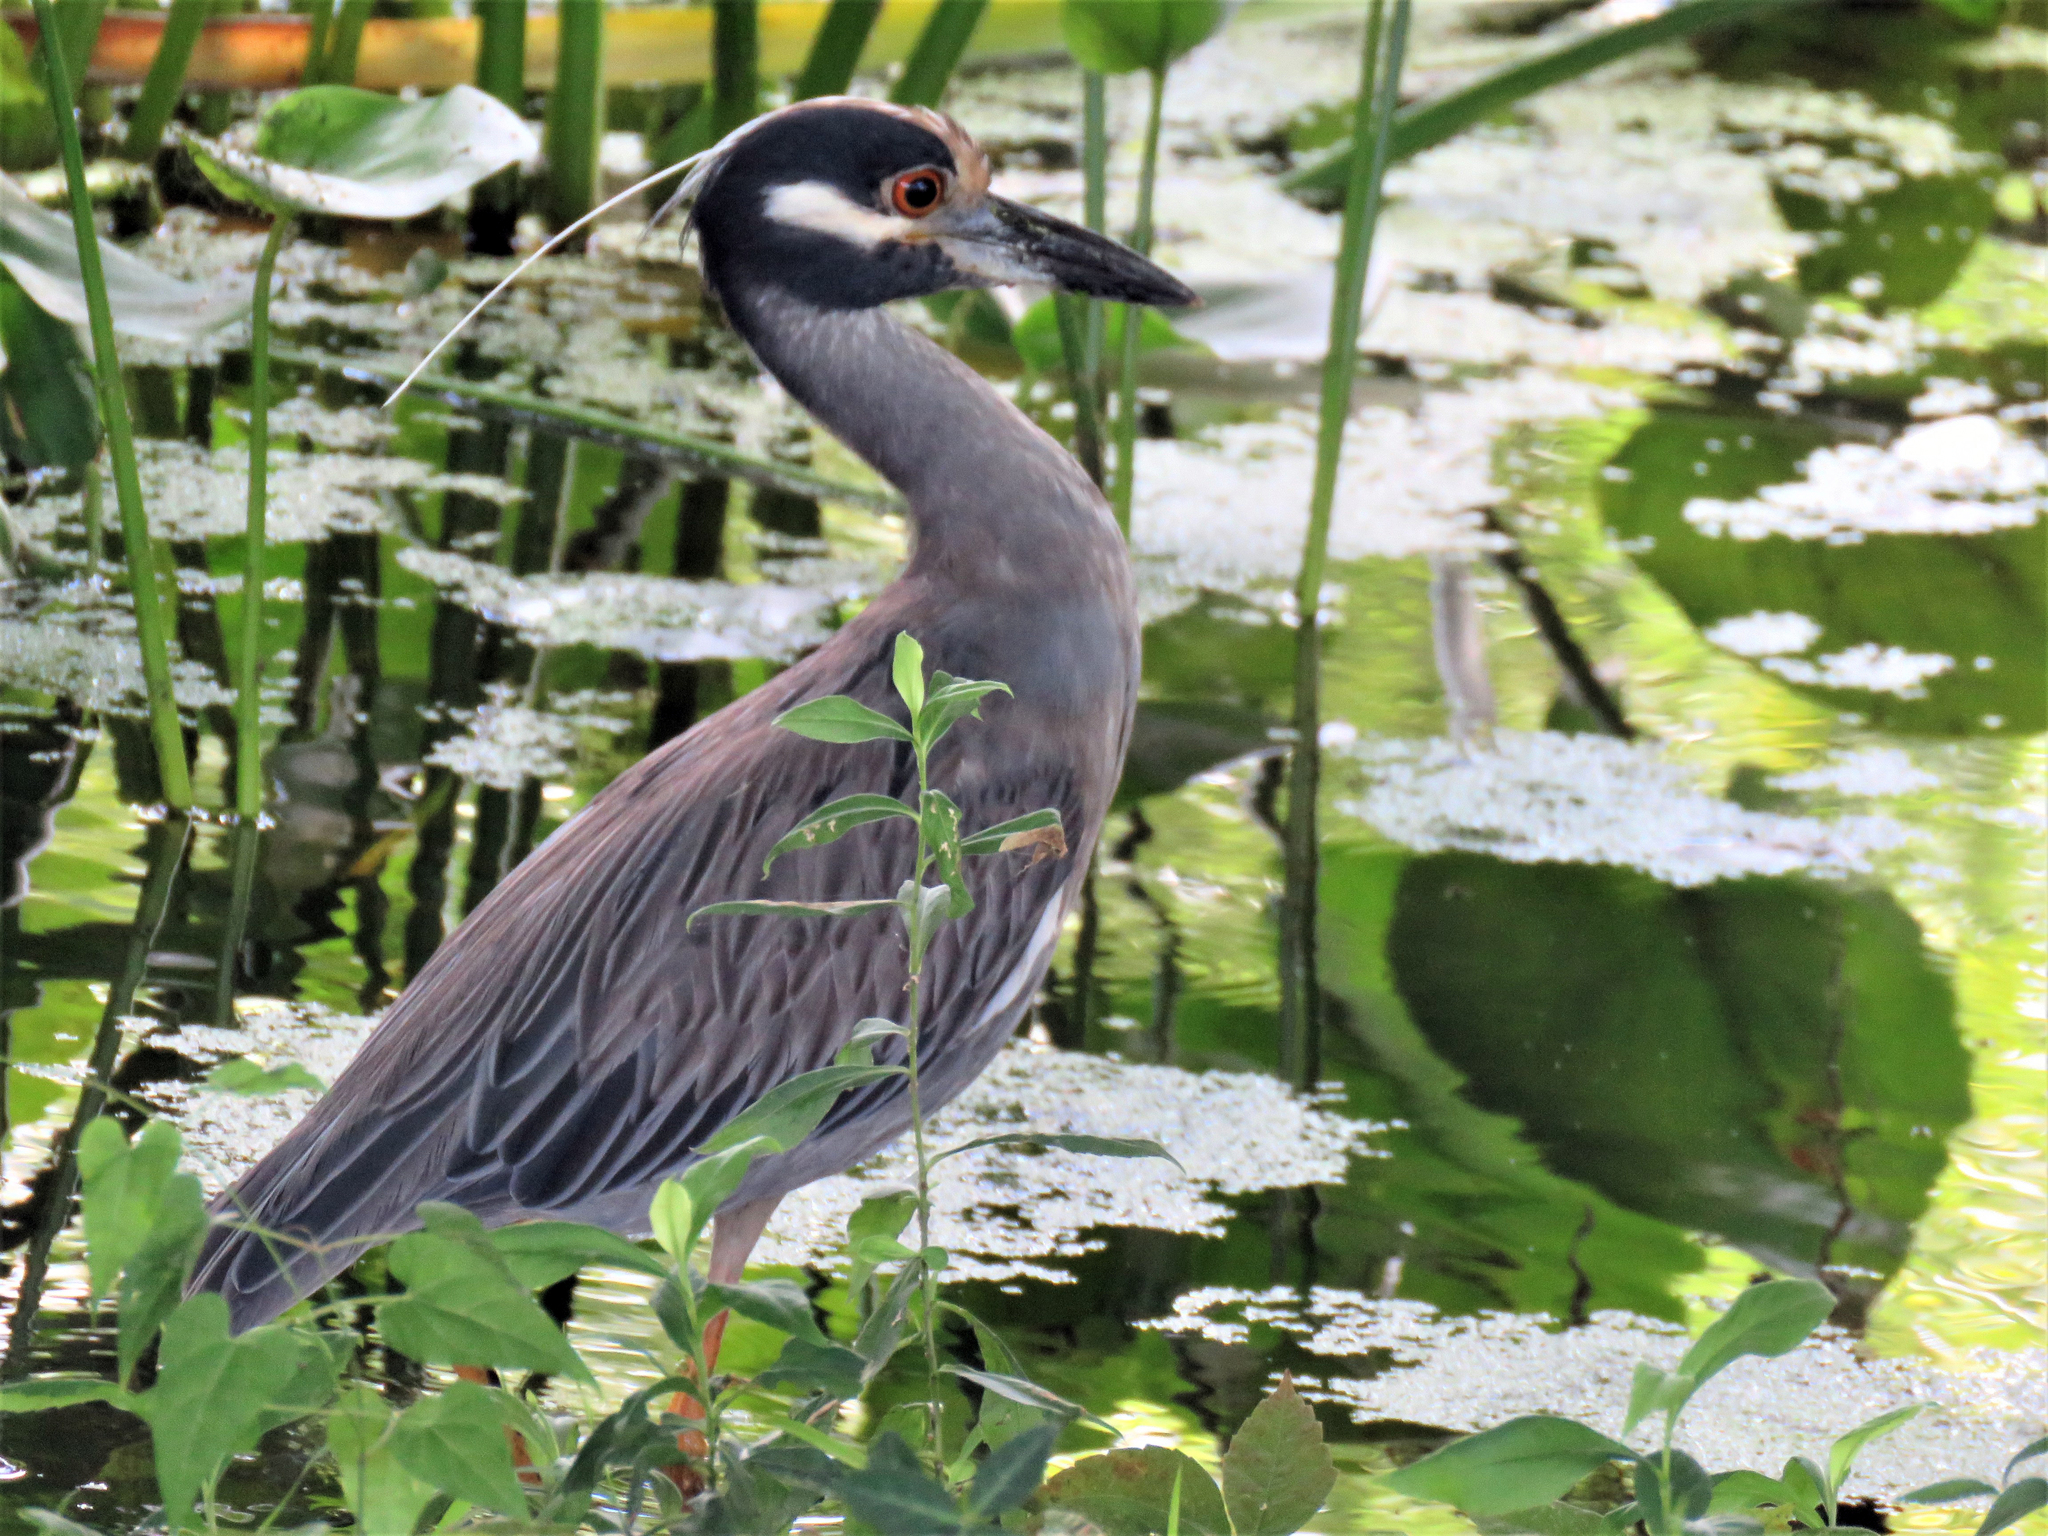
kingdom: Animalia
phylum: Chordata
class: Aves
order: Pelecaniformes
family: Ardeidae
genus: Nyctanassa
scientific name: Nyctanassa violacea
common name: Yellow-crowned night heron
